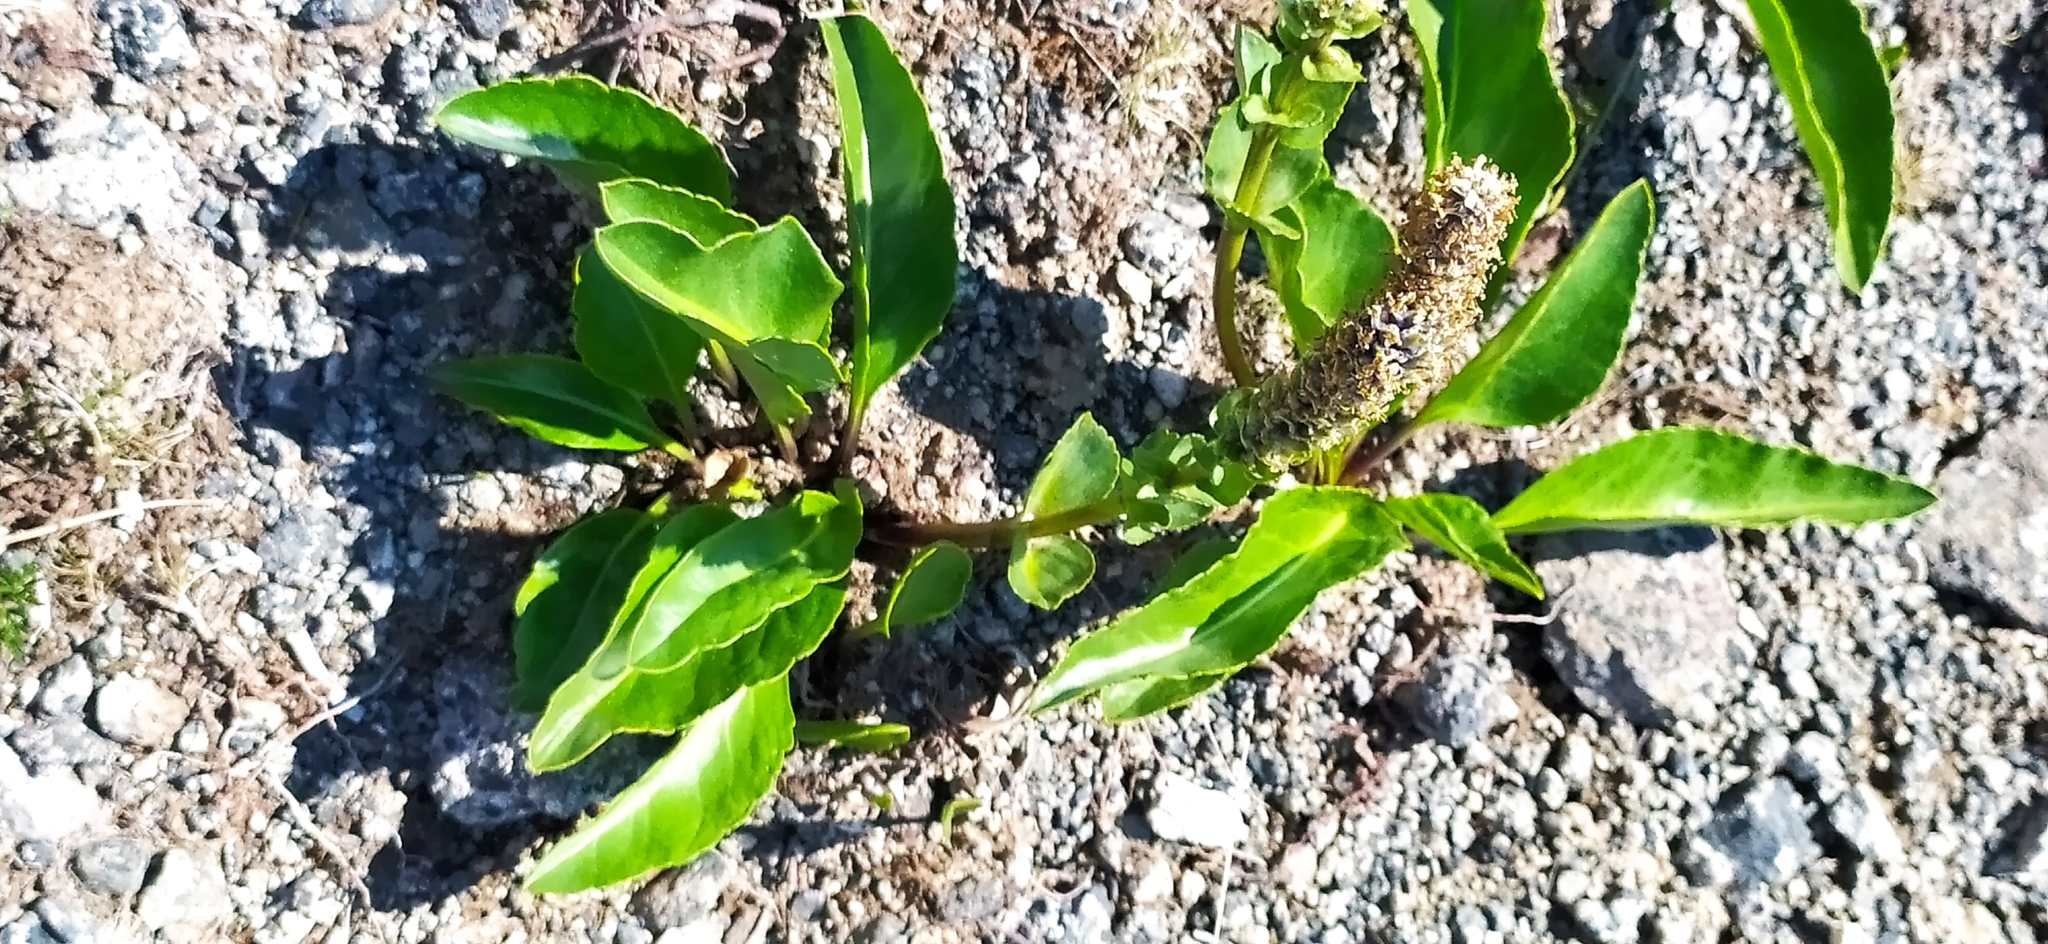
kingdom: Plantae
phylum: Tracheophyta
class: Magnoliopsida
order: Lamiales
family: Plantaginaceae
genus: Lagotis
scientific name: Lagotis uralensis
